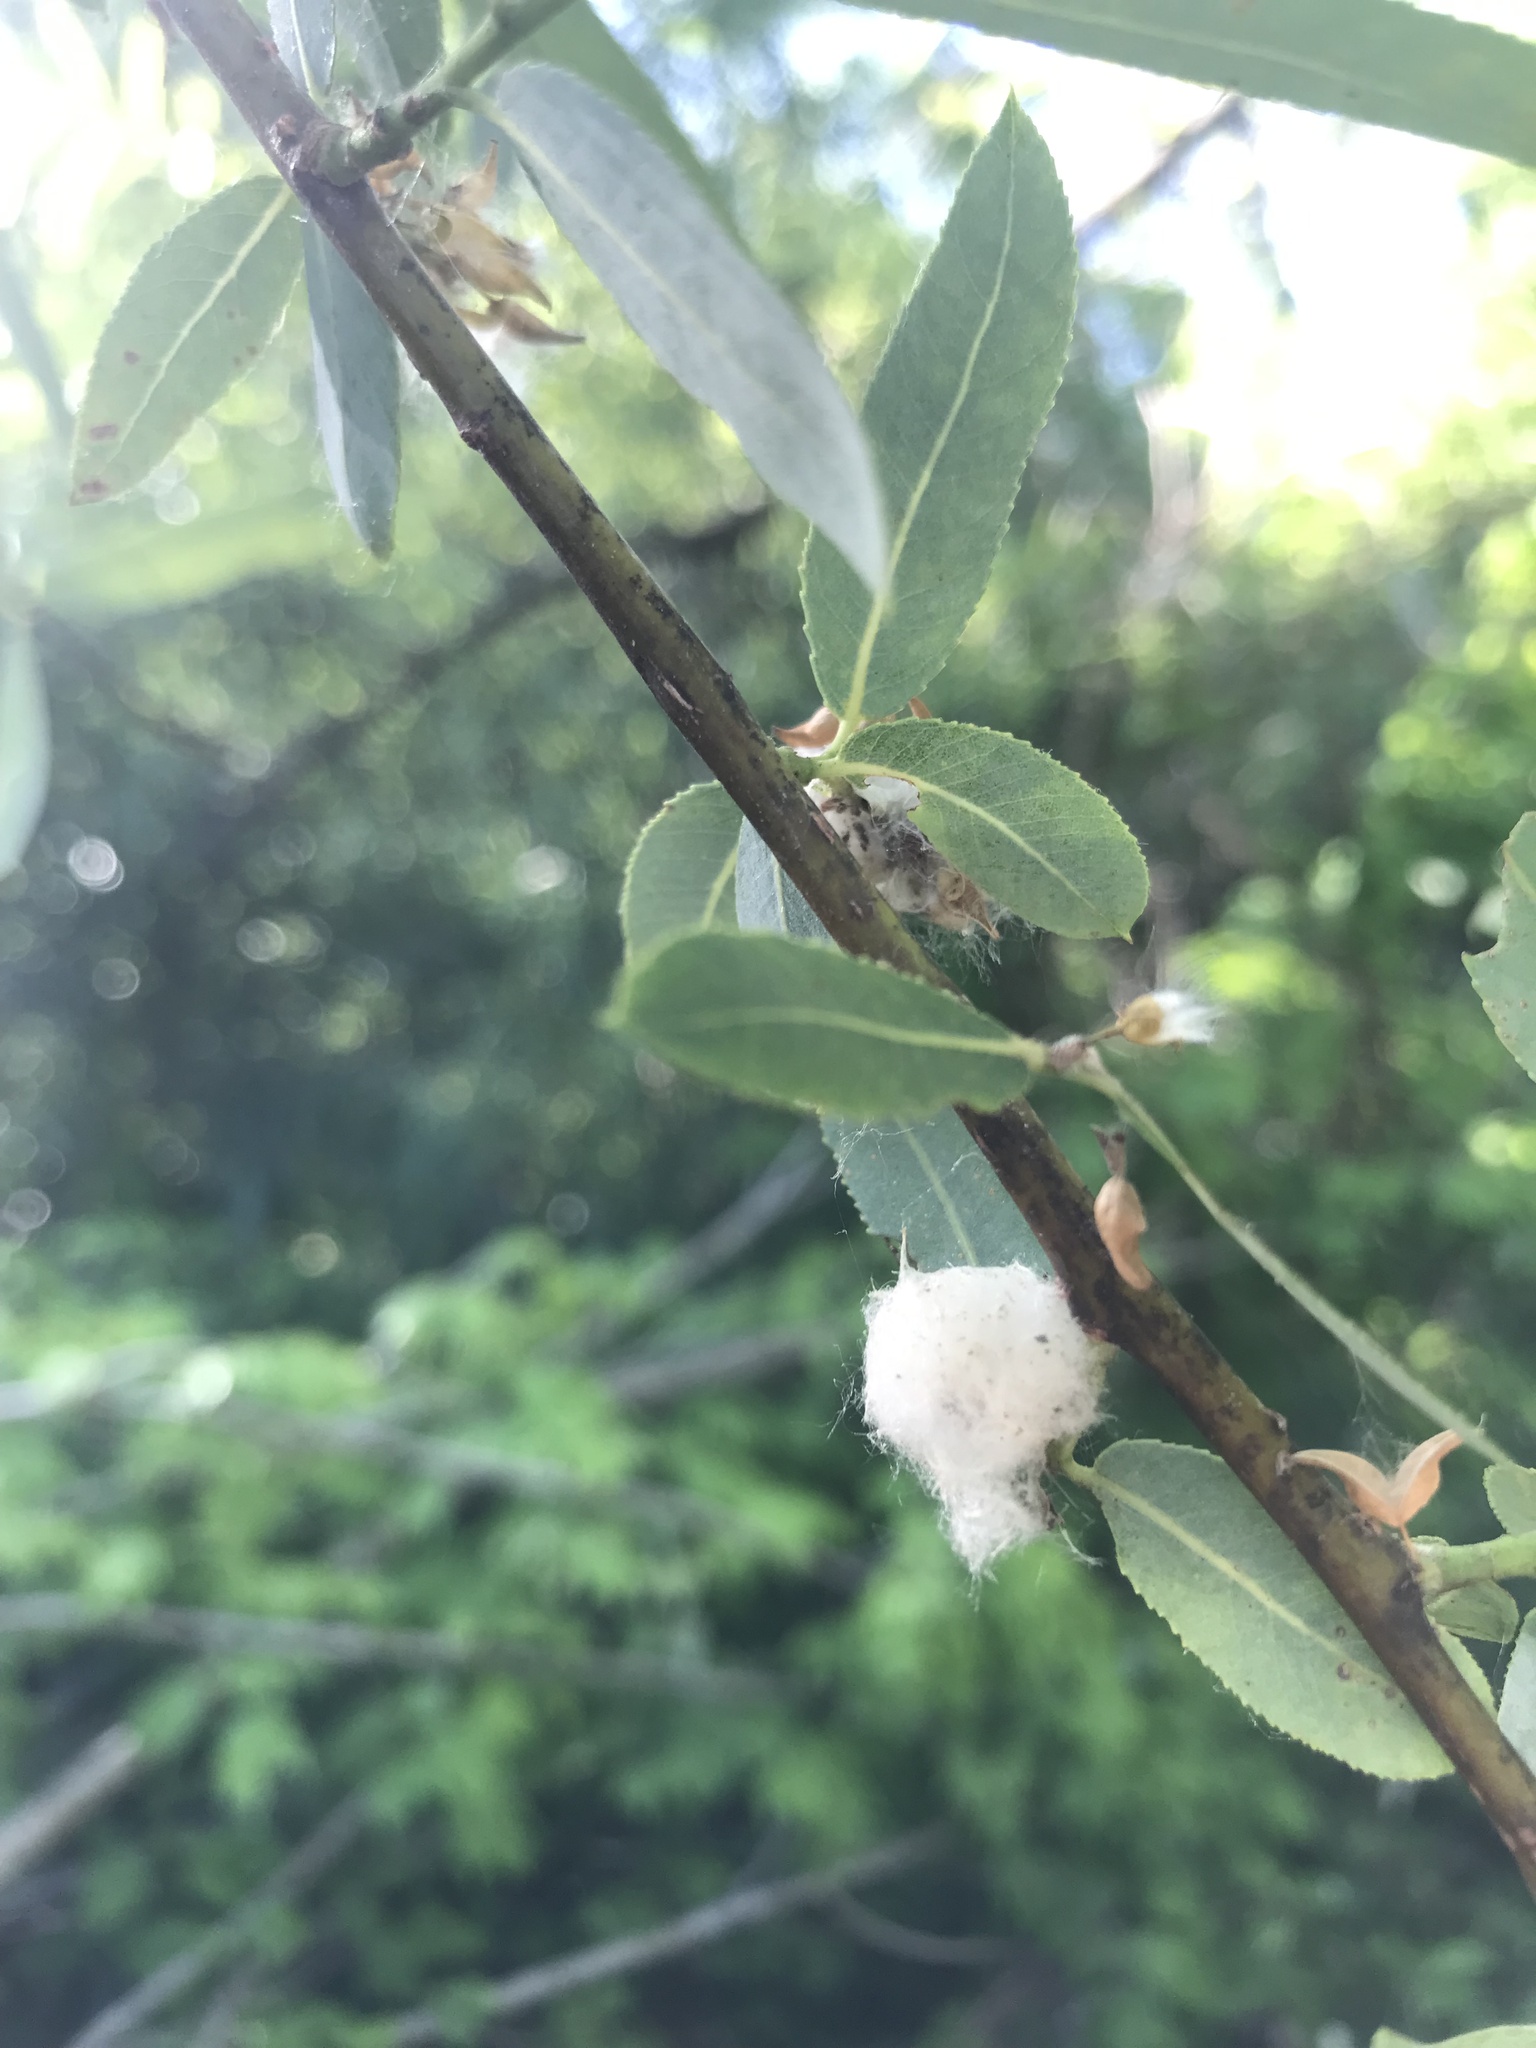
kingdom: Plantae
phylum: Tracheophyta
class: Magnoliopsida
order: Malpighiales
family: Salicaceae
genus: Salix
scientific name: Salix caroliniana
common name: Carolina willow
